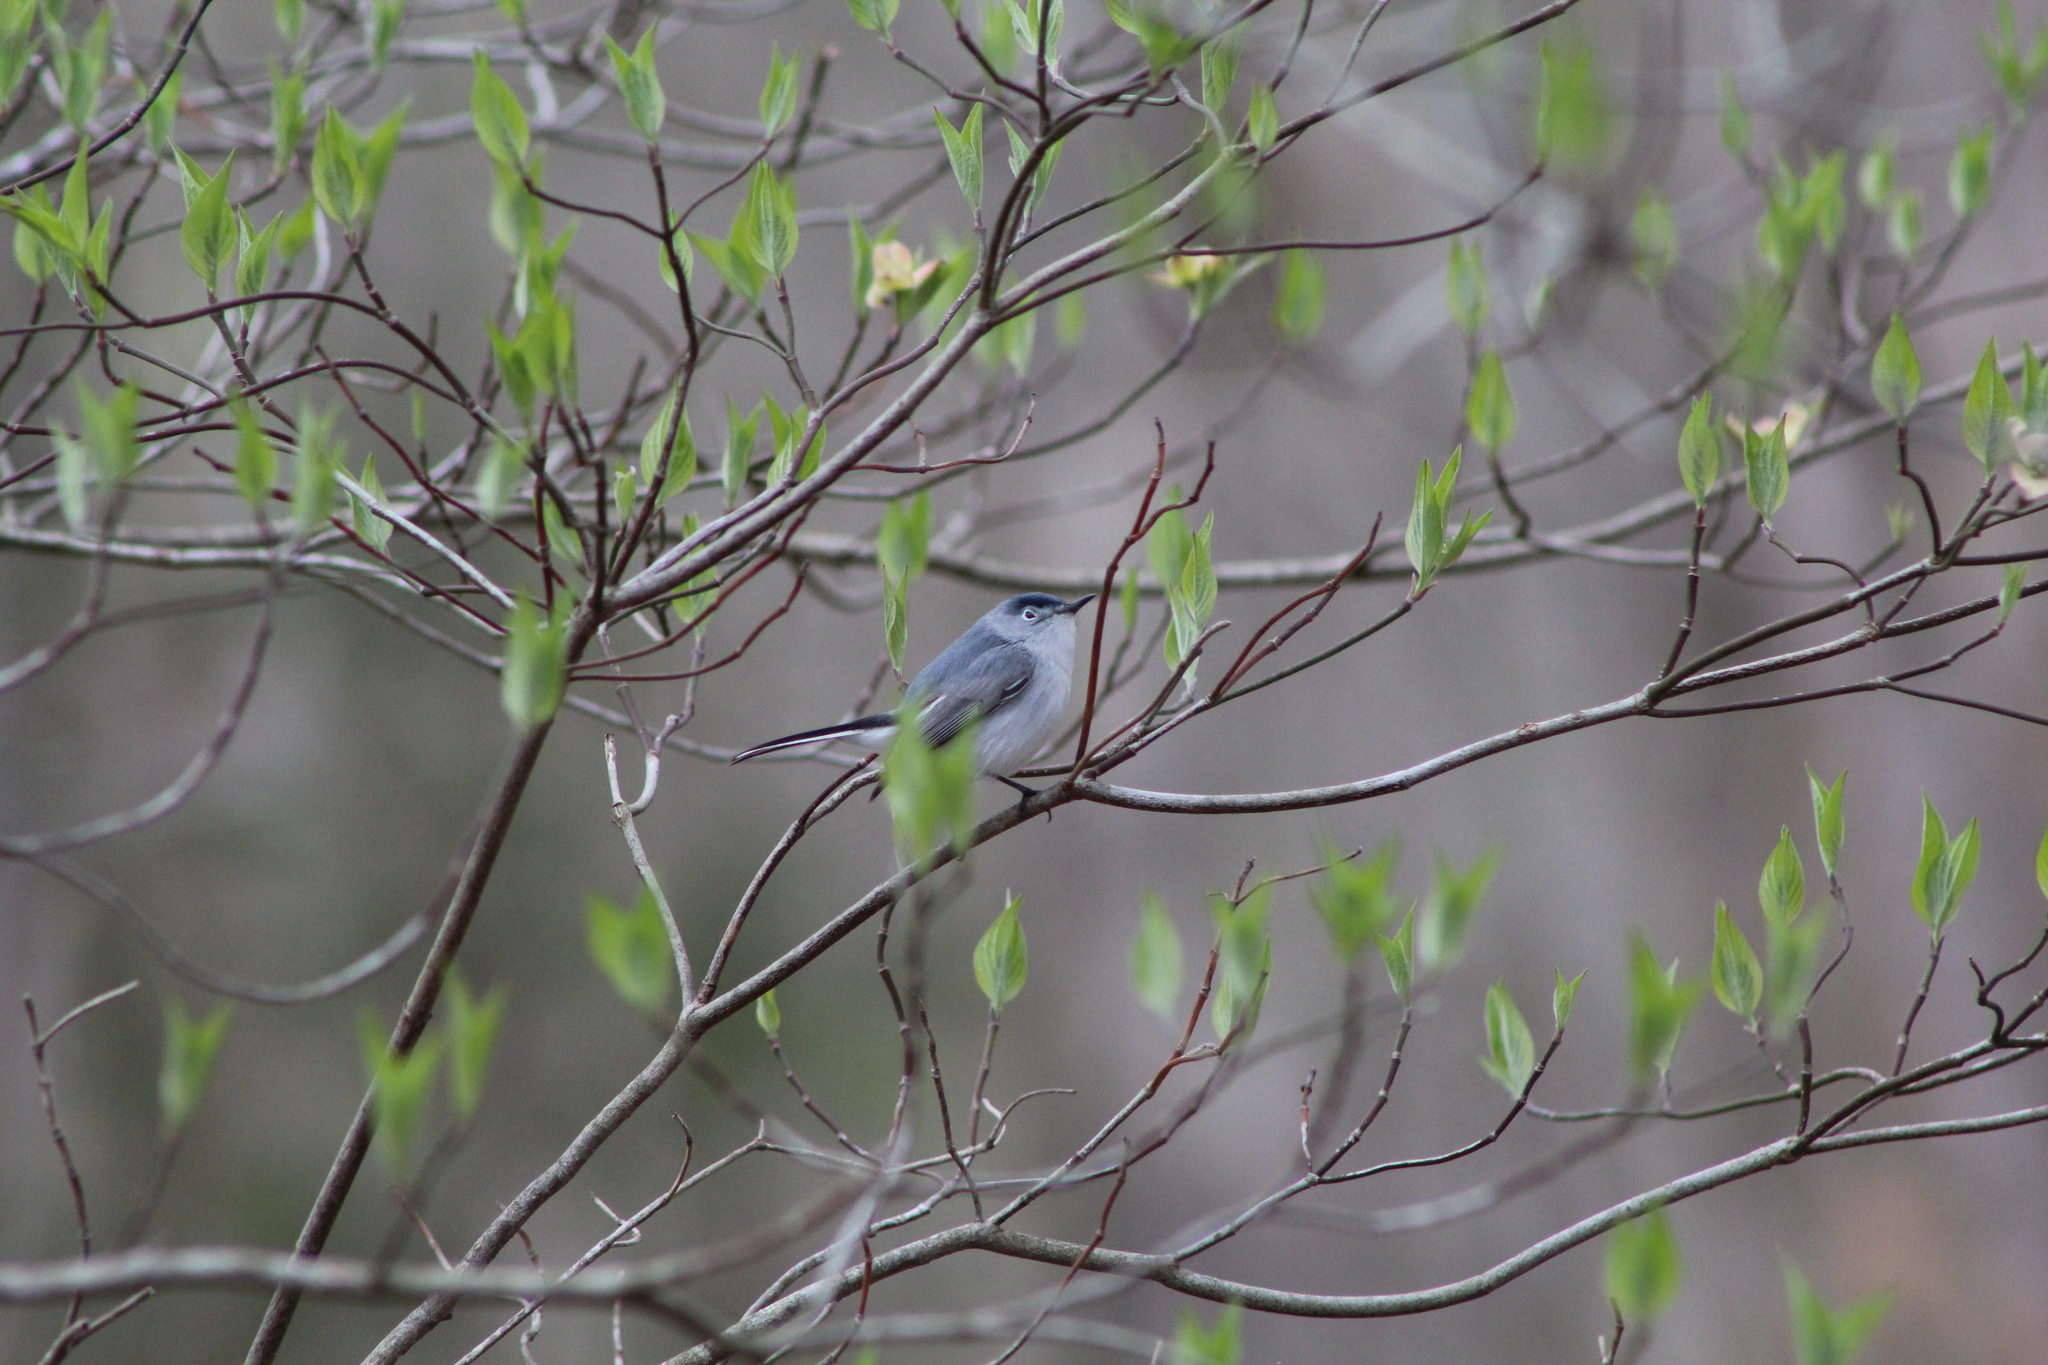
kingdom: Animalia
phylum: Chordata
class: Aves
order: Passeriformes
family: Polioptilidae
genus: Polioptila
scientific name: Polioptila caerulea
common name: Blue-gray gnatcatcher
